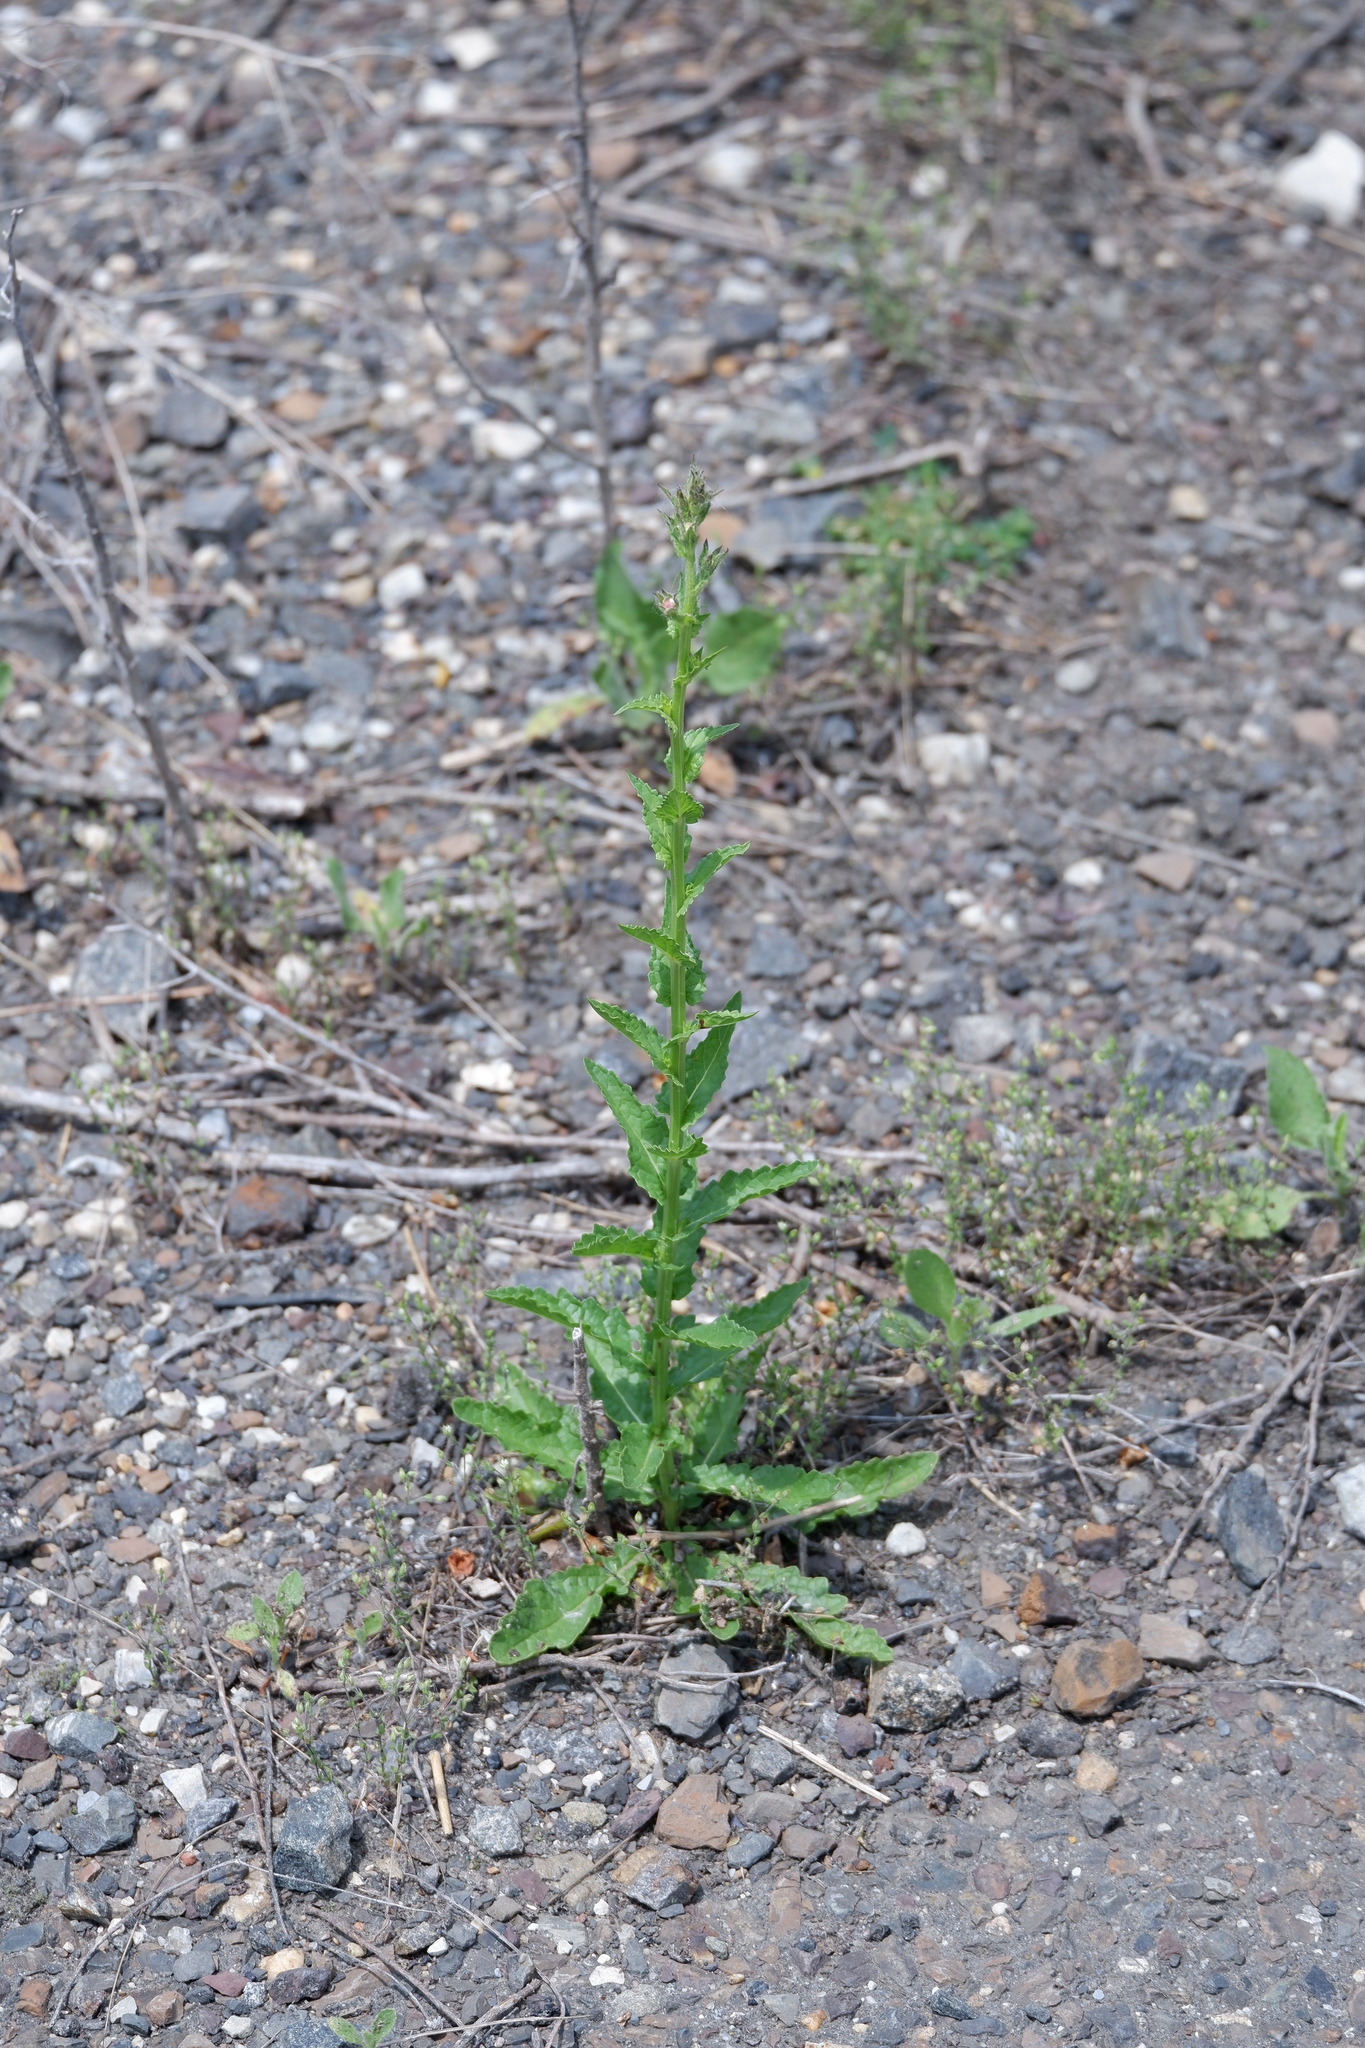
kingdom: Plantae
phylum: Tracheophyta
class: Magnoliopsida
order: Lamiales
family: Scrophulariaceae
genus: Verbascum
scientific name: Verbascum blattaria
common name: Moth mullein
